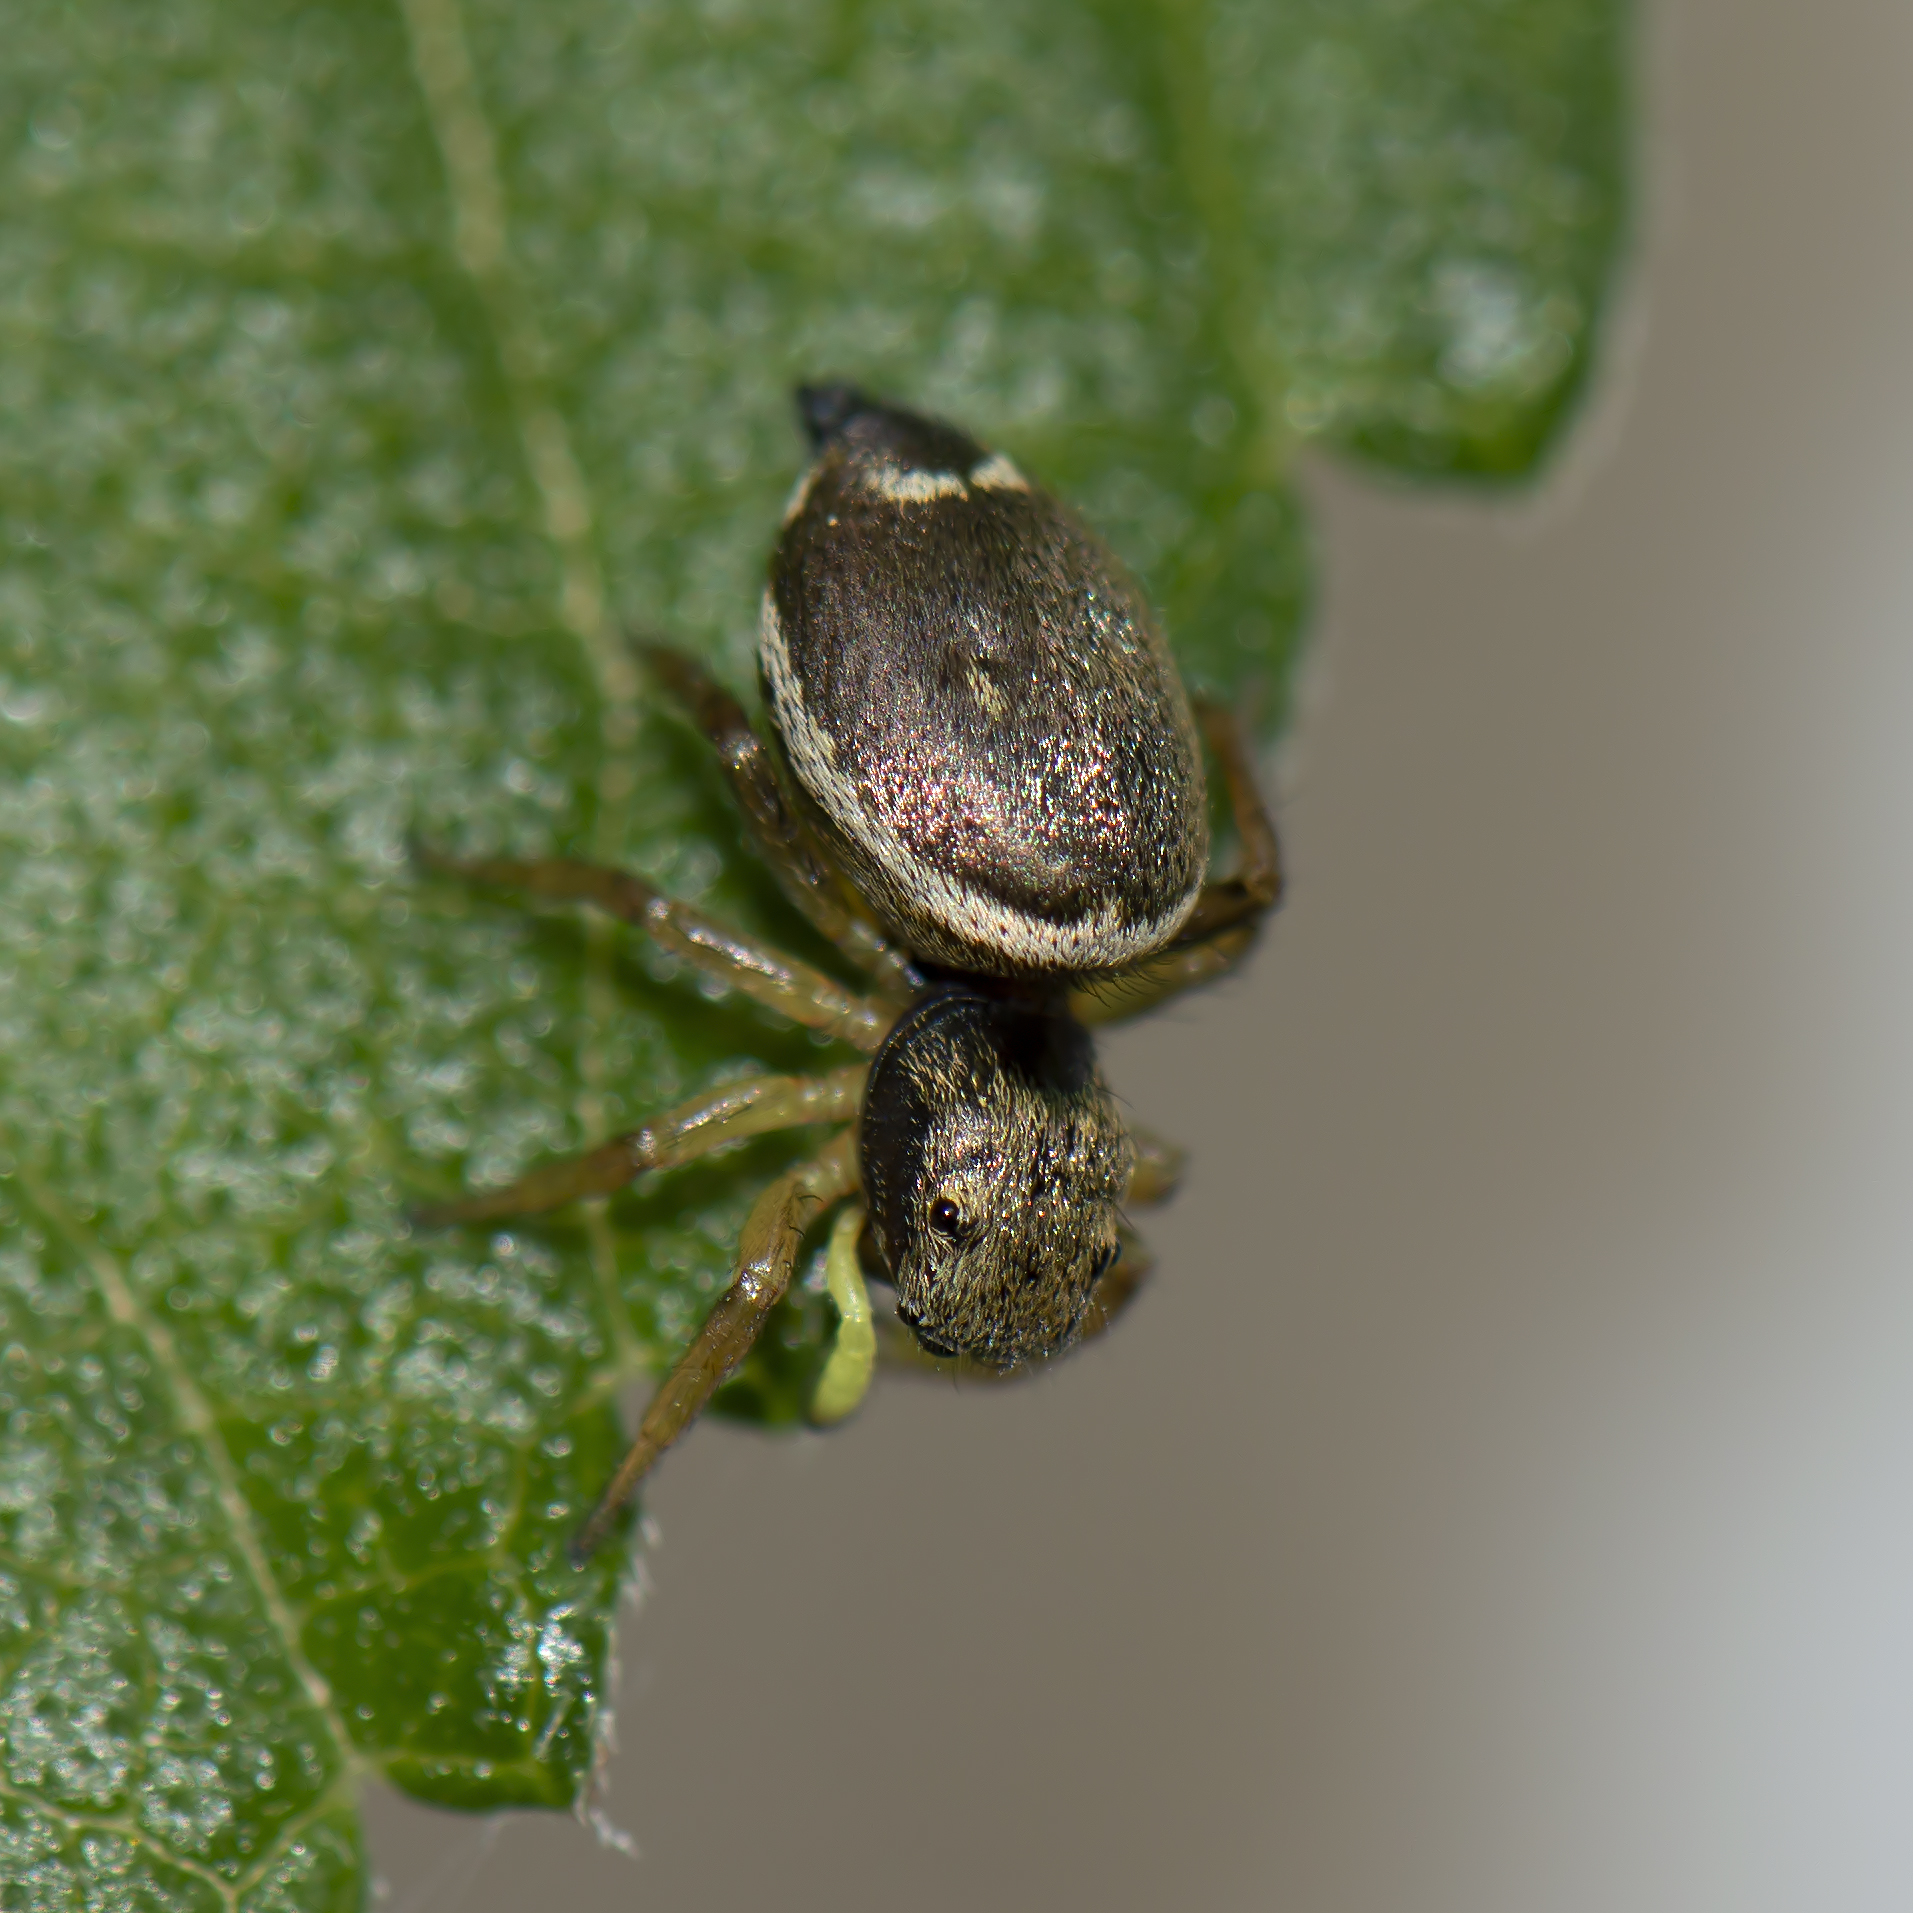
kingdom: Animalia
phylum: Arthropoda
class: Arachnida
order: Araneae
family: Salticidae
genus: Heliophanus
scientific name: Heliophanus tribulosus
